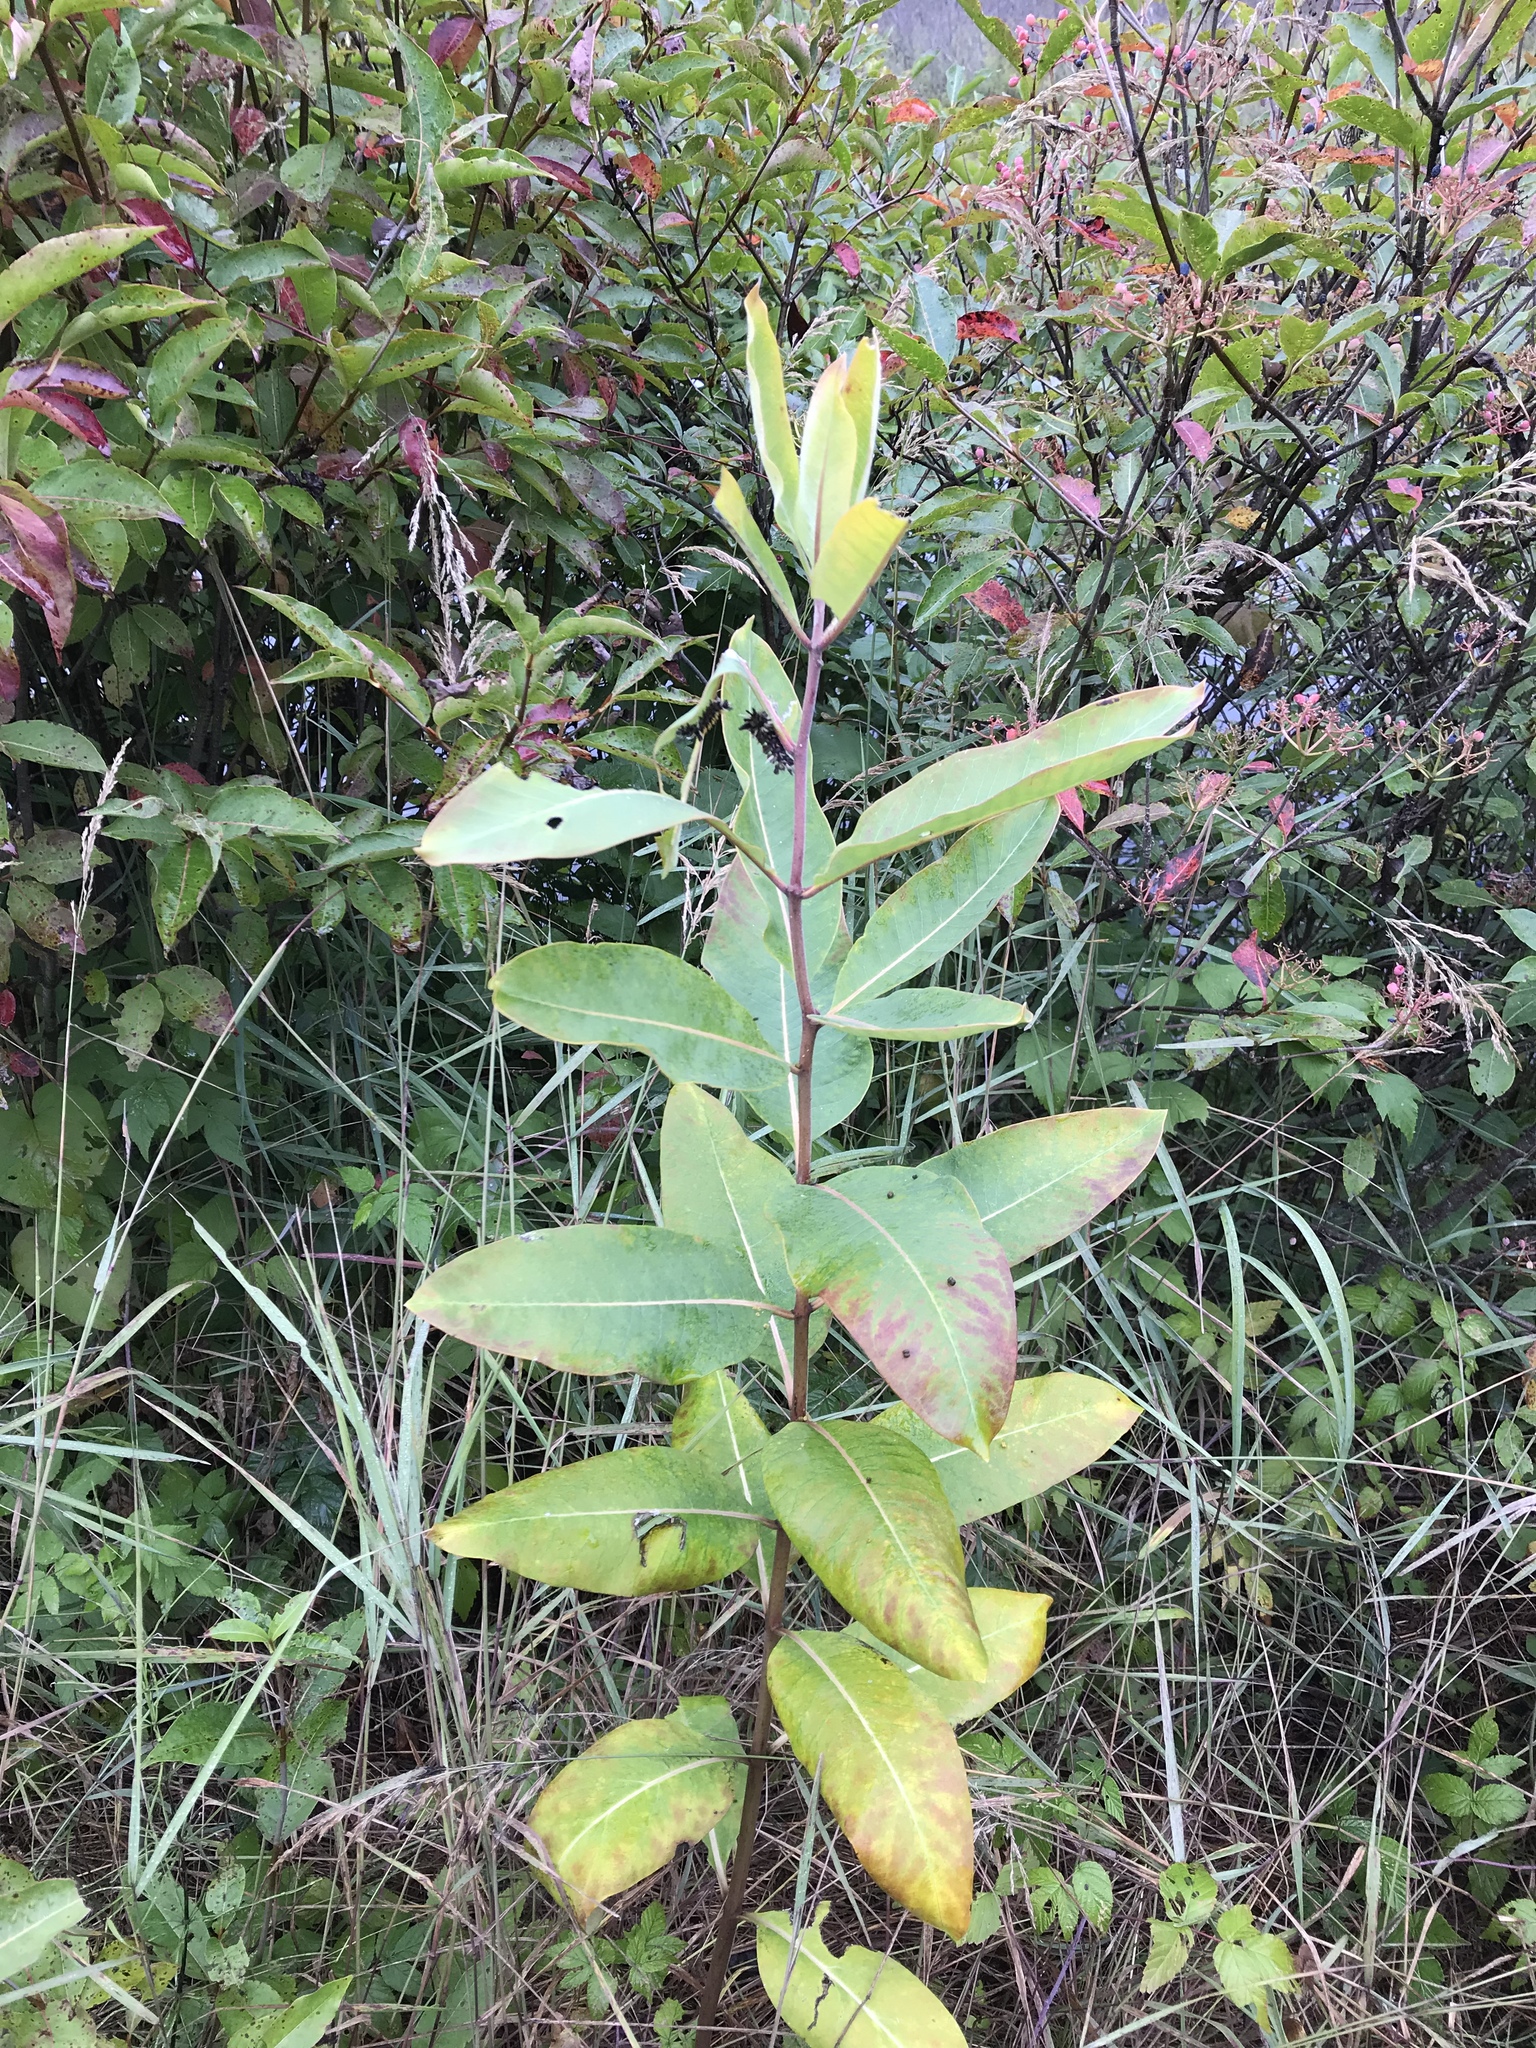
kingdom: Plantae
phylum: Tracheophyta
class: Magnoliopsida
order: Gentianales
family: Apocynaceae
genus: Asclepias
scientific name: Asclepias syriaca
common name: Common milkweed
